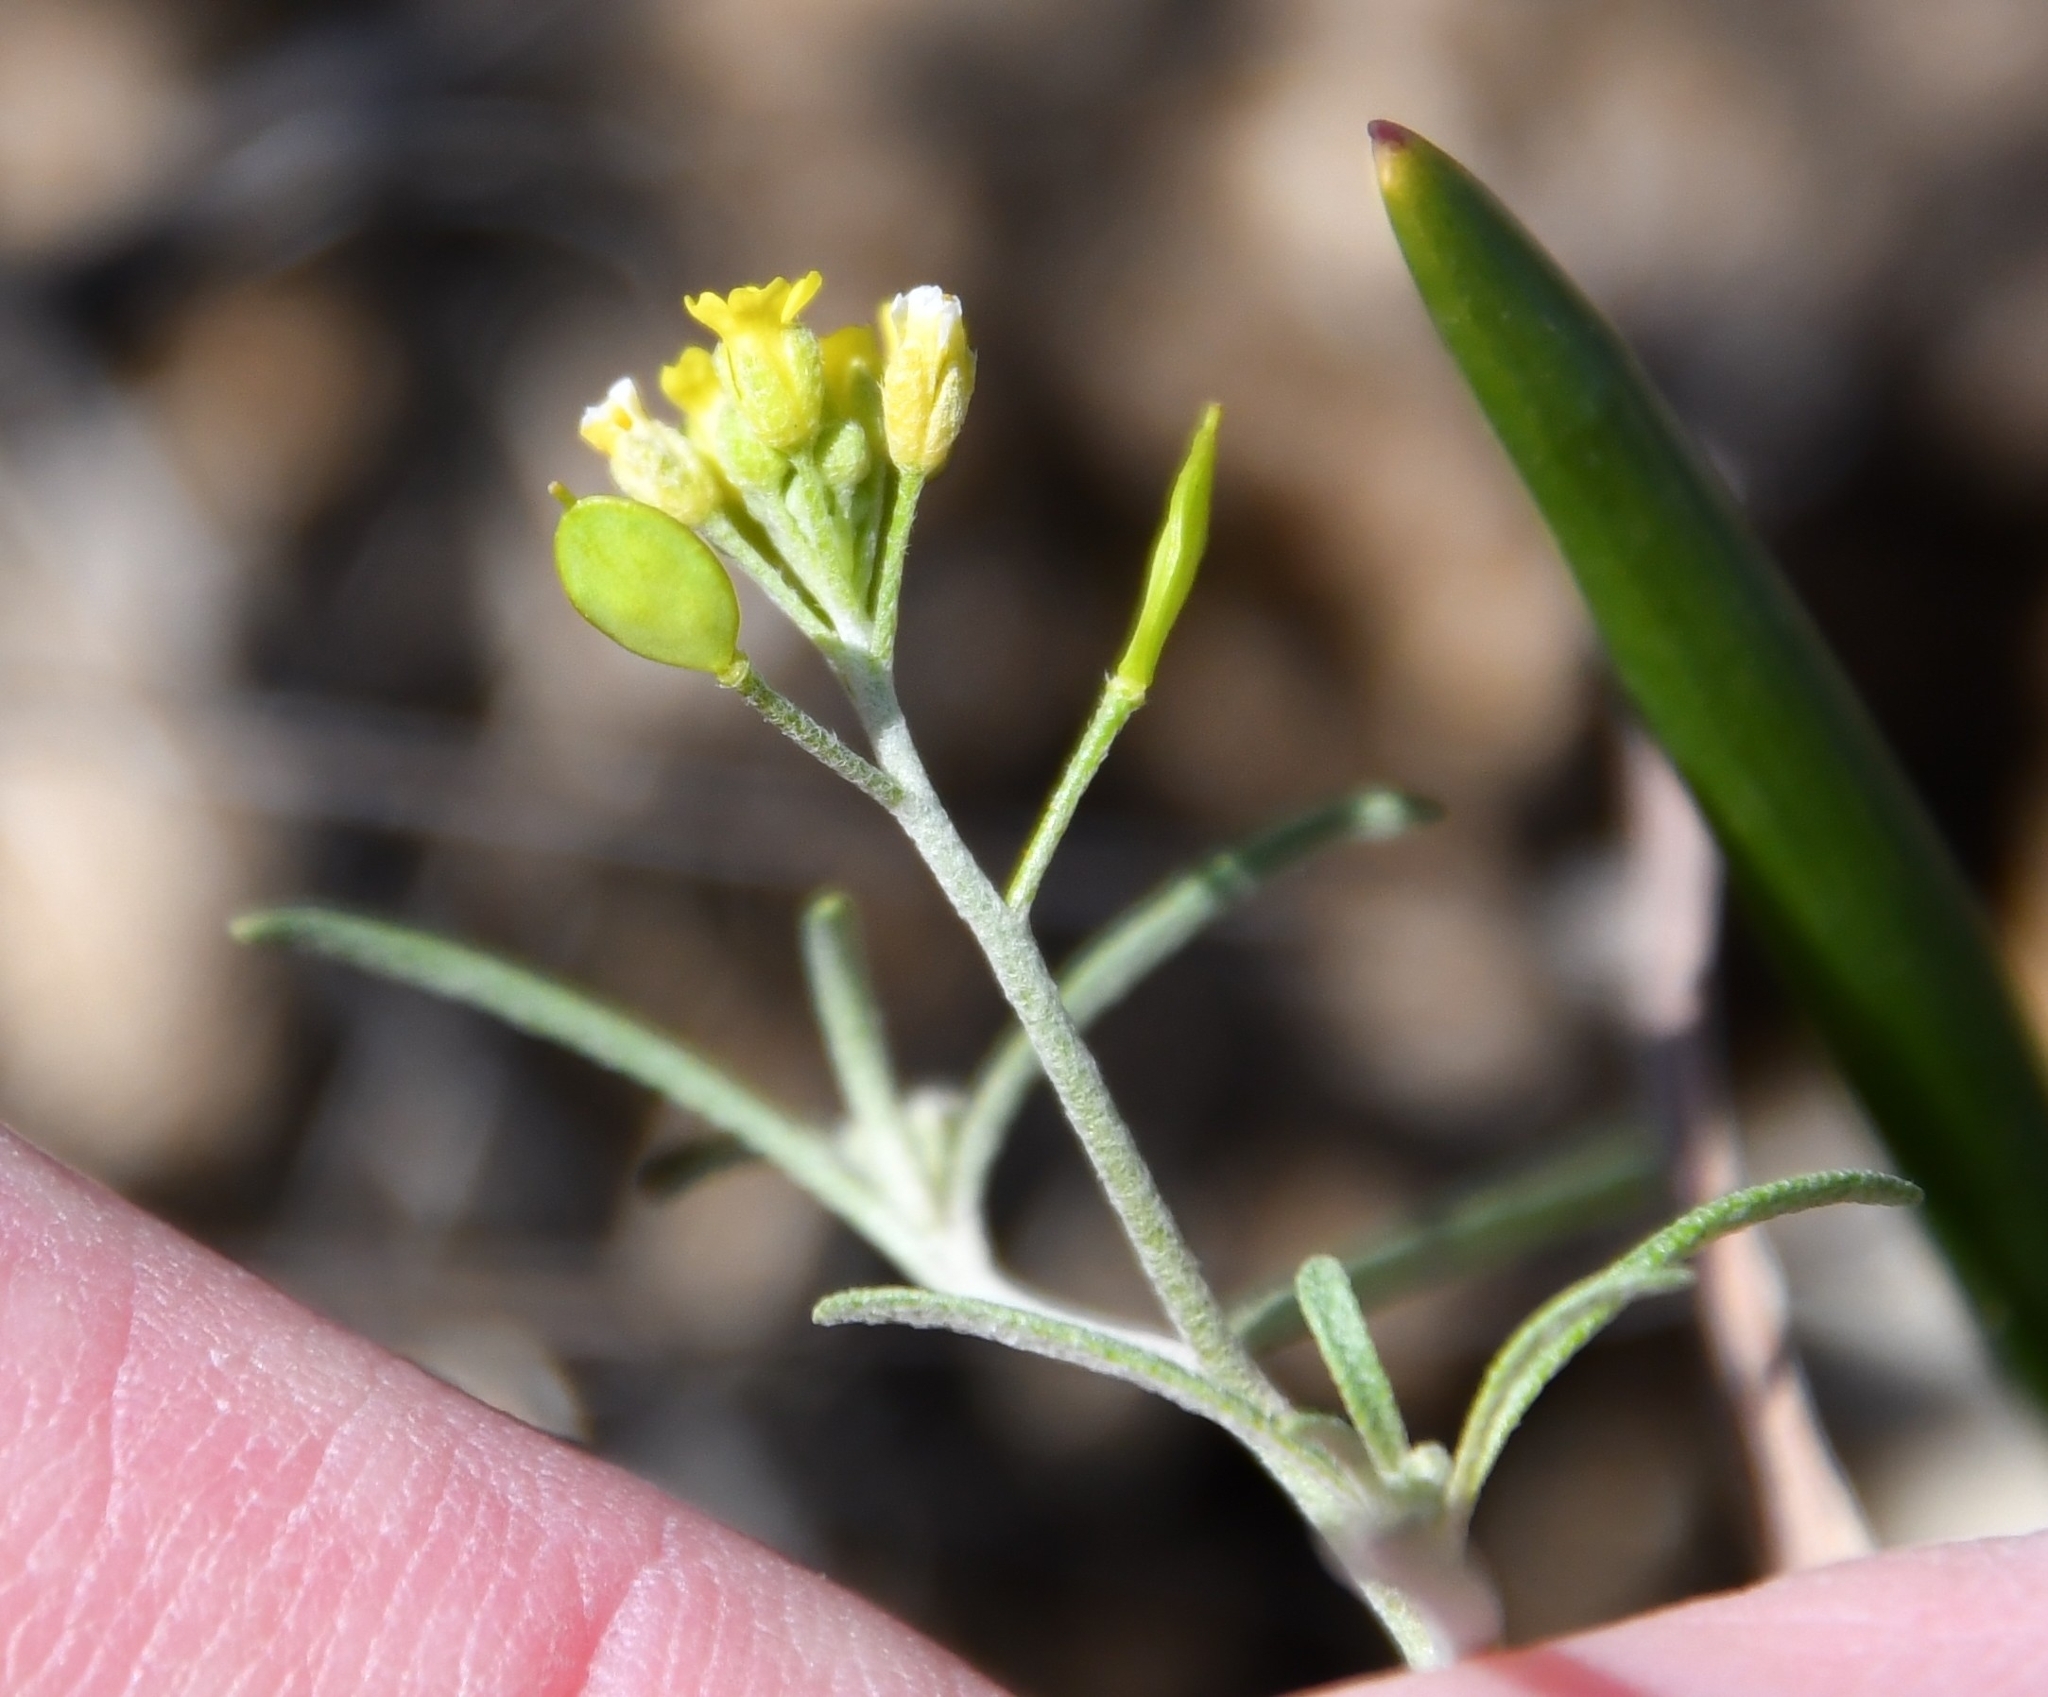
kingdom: Plantae
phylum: Tracheophyta
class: Magnoliopsida
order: Brassicales
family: Brassicaceae
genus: Meniocus
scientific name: Meniocus linifolius
